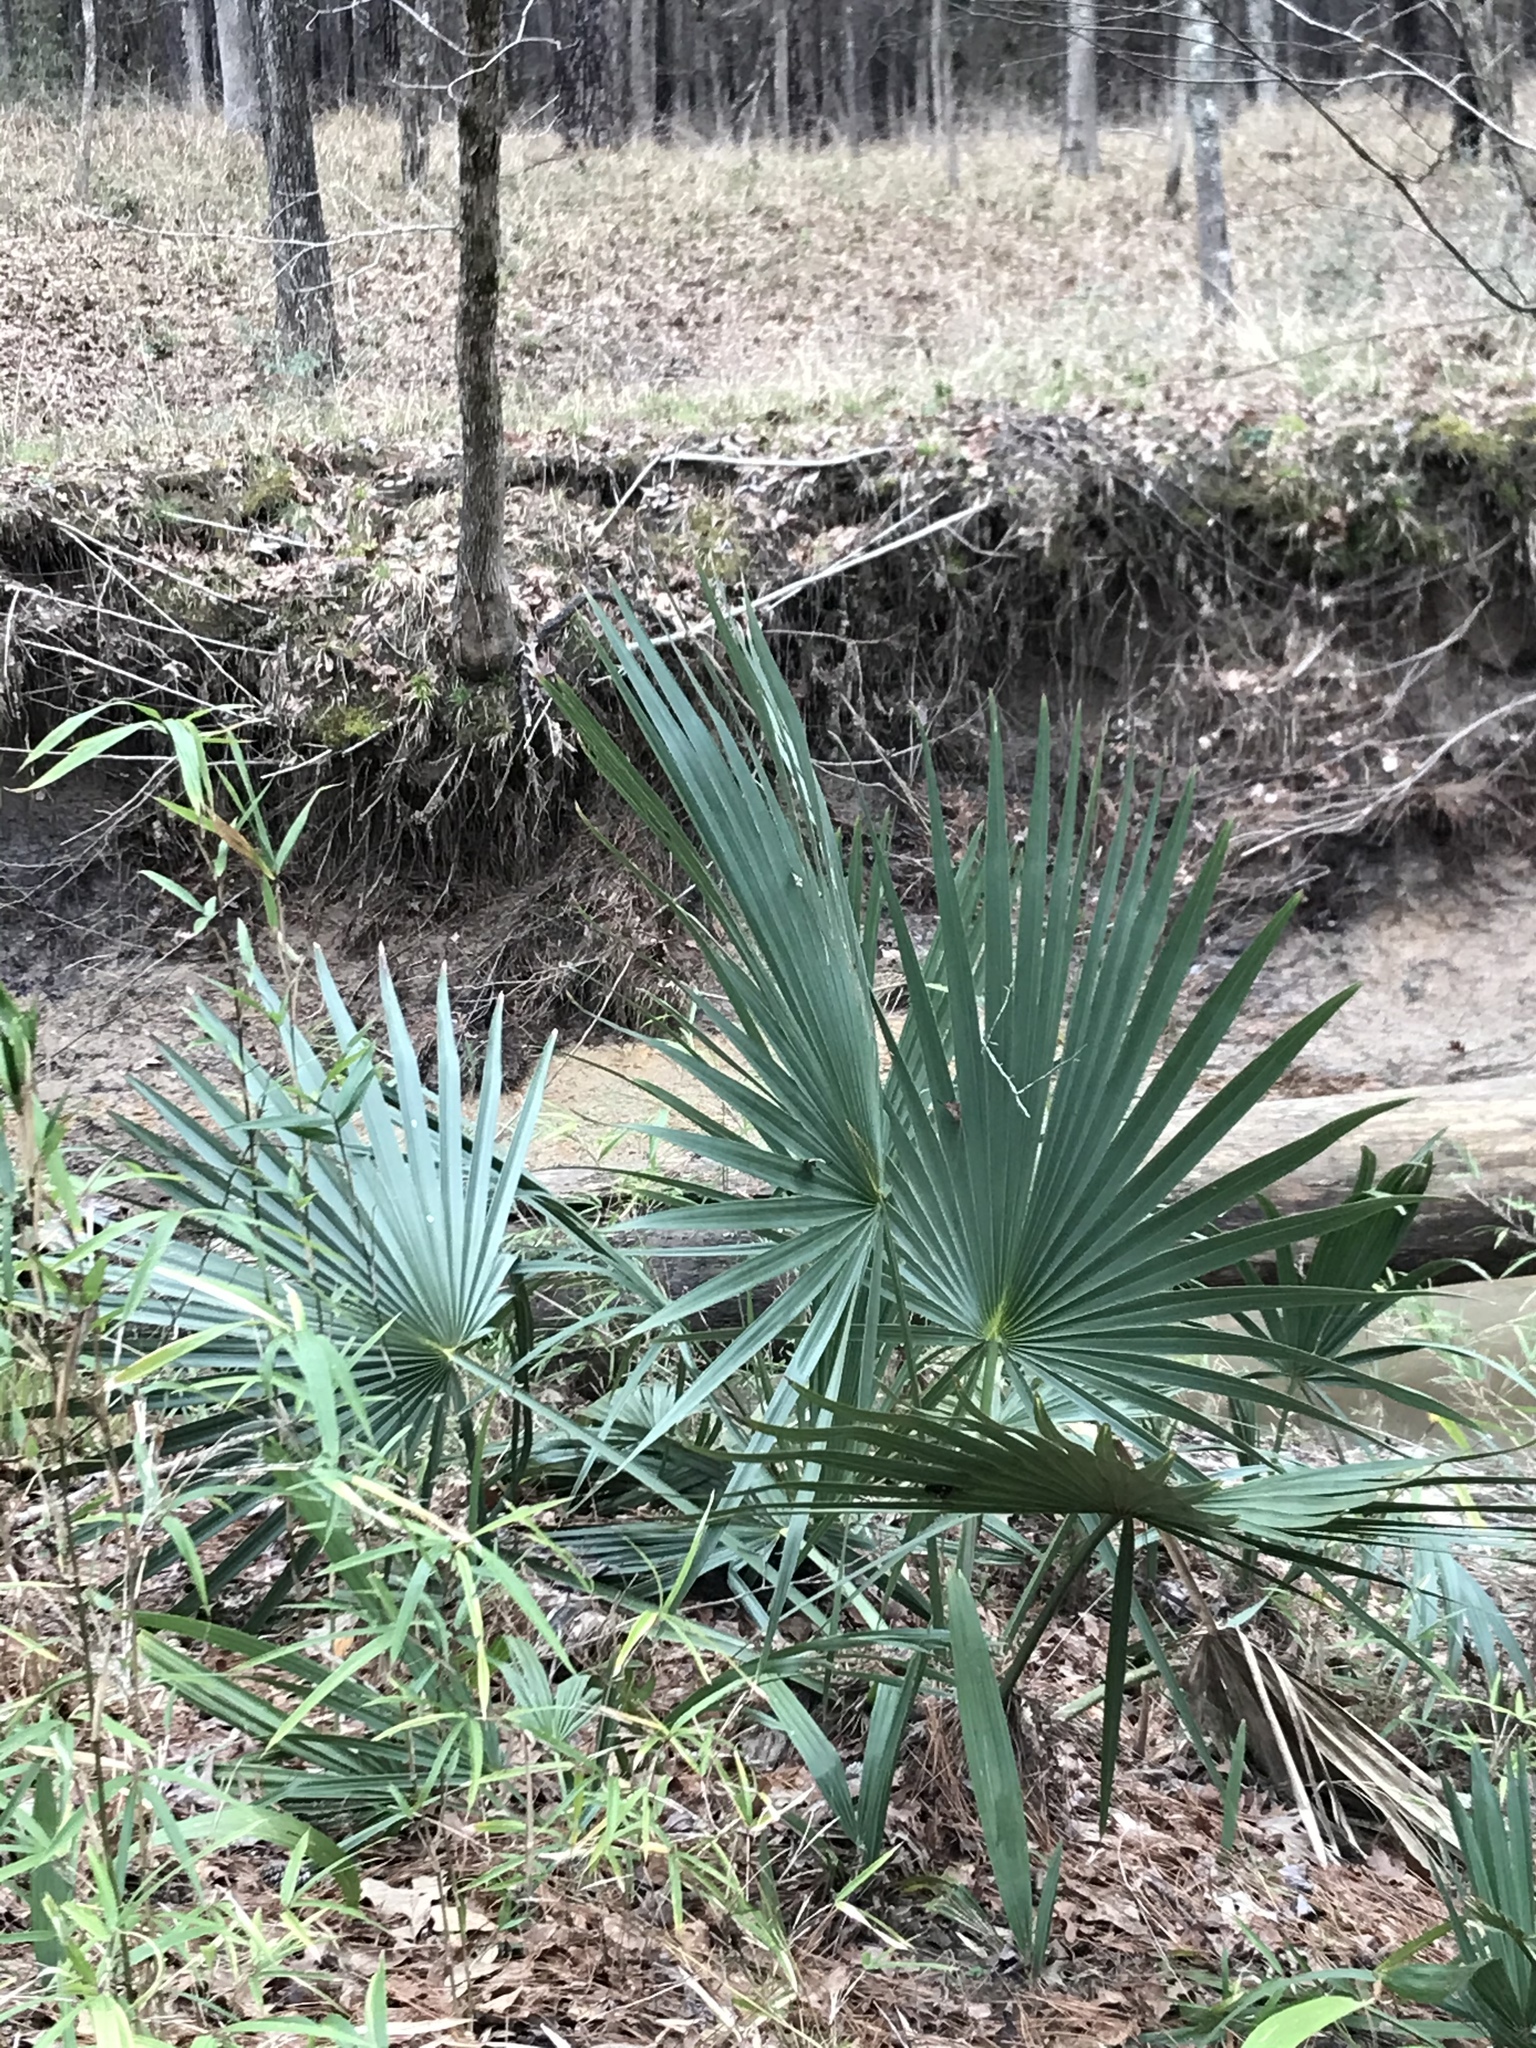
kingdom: Plantae
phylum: Tracheophyta
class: Liliopsida
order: Arecales
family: Arecaceae
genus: Sabal
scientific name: Sabal minor
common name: Dwarf palmetto
